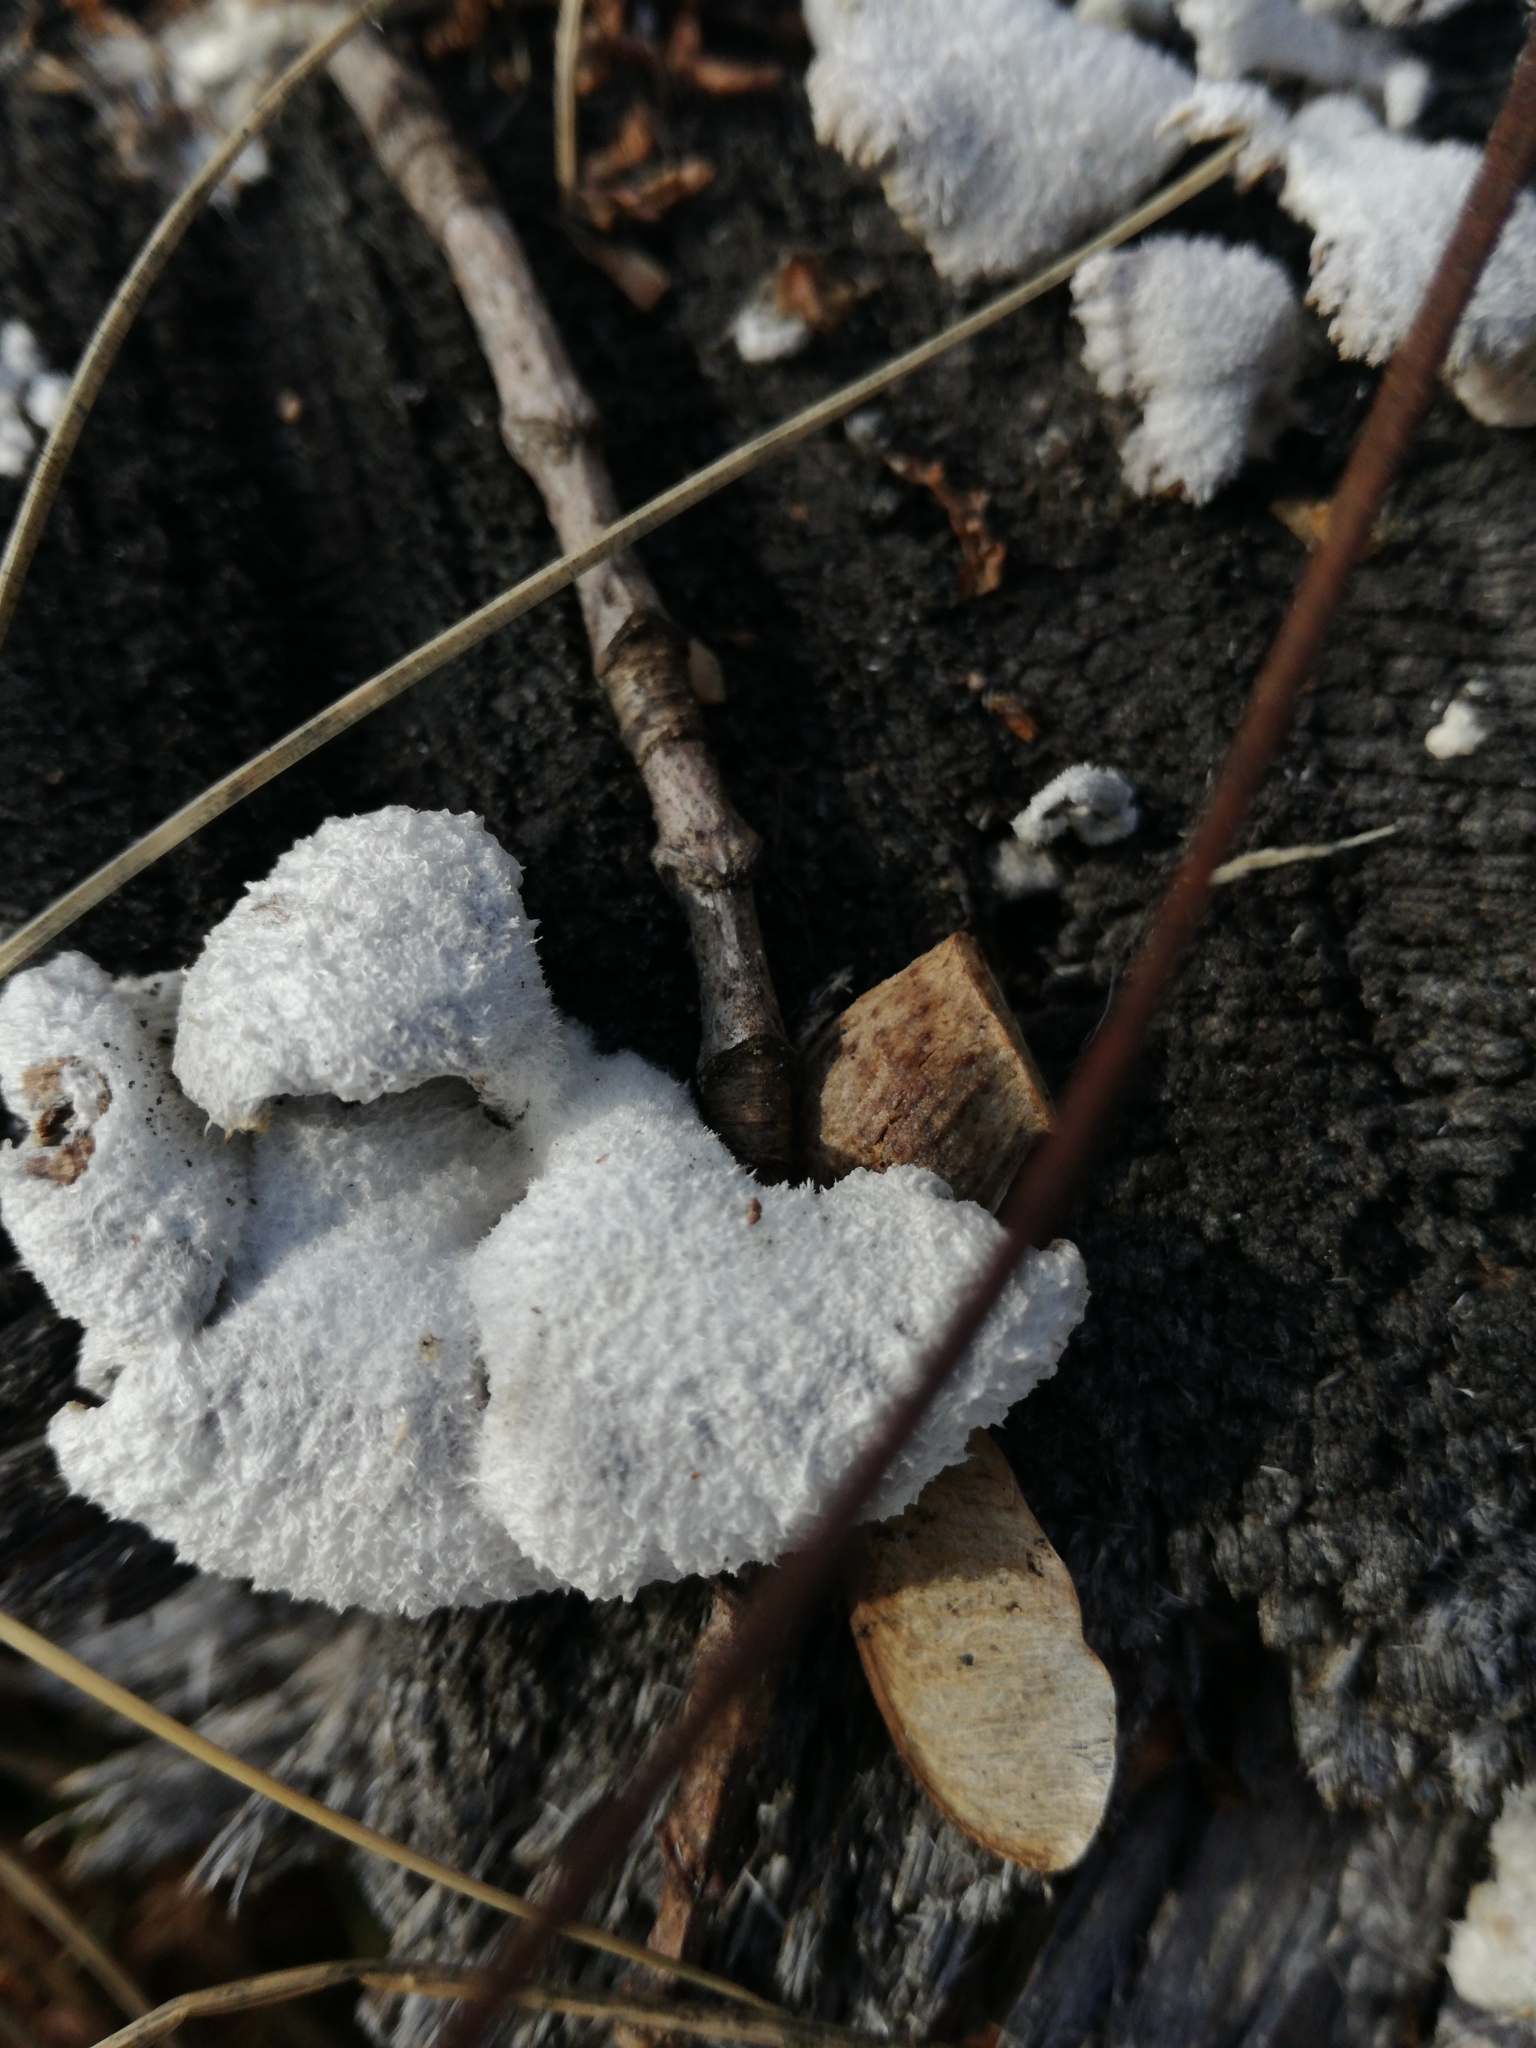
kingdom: Fungi
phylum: Basidiomycota
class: Agaricomycetes
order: Agaricales
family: Schizophyllaceae
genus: Schizophyllum
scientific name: Schizophyllum commune
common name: Common porecrust
